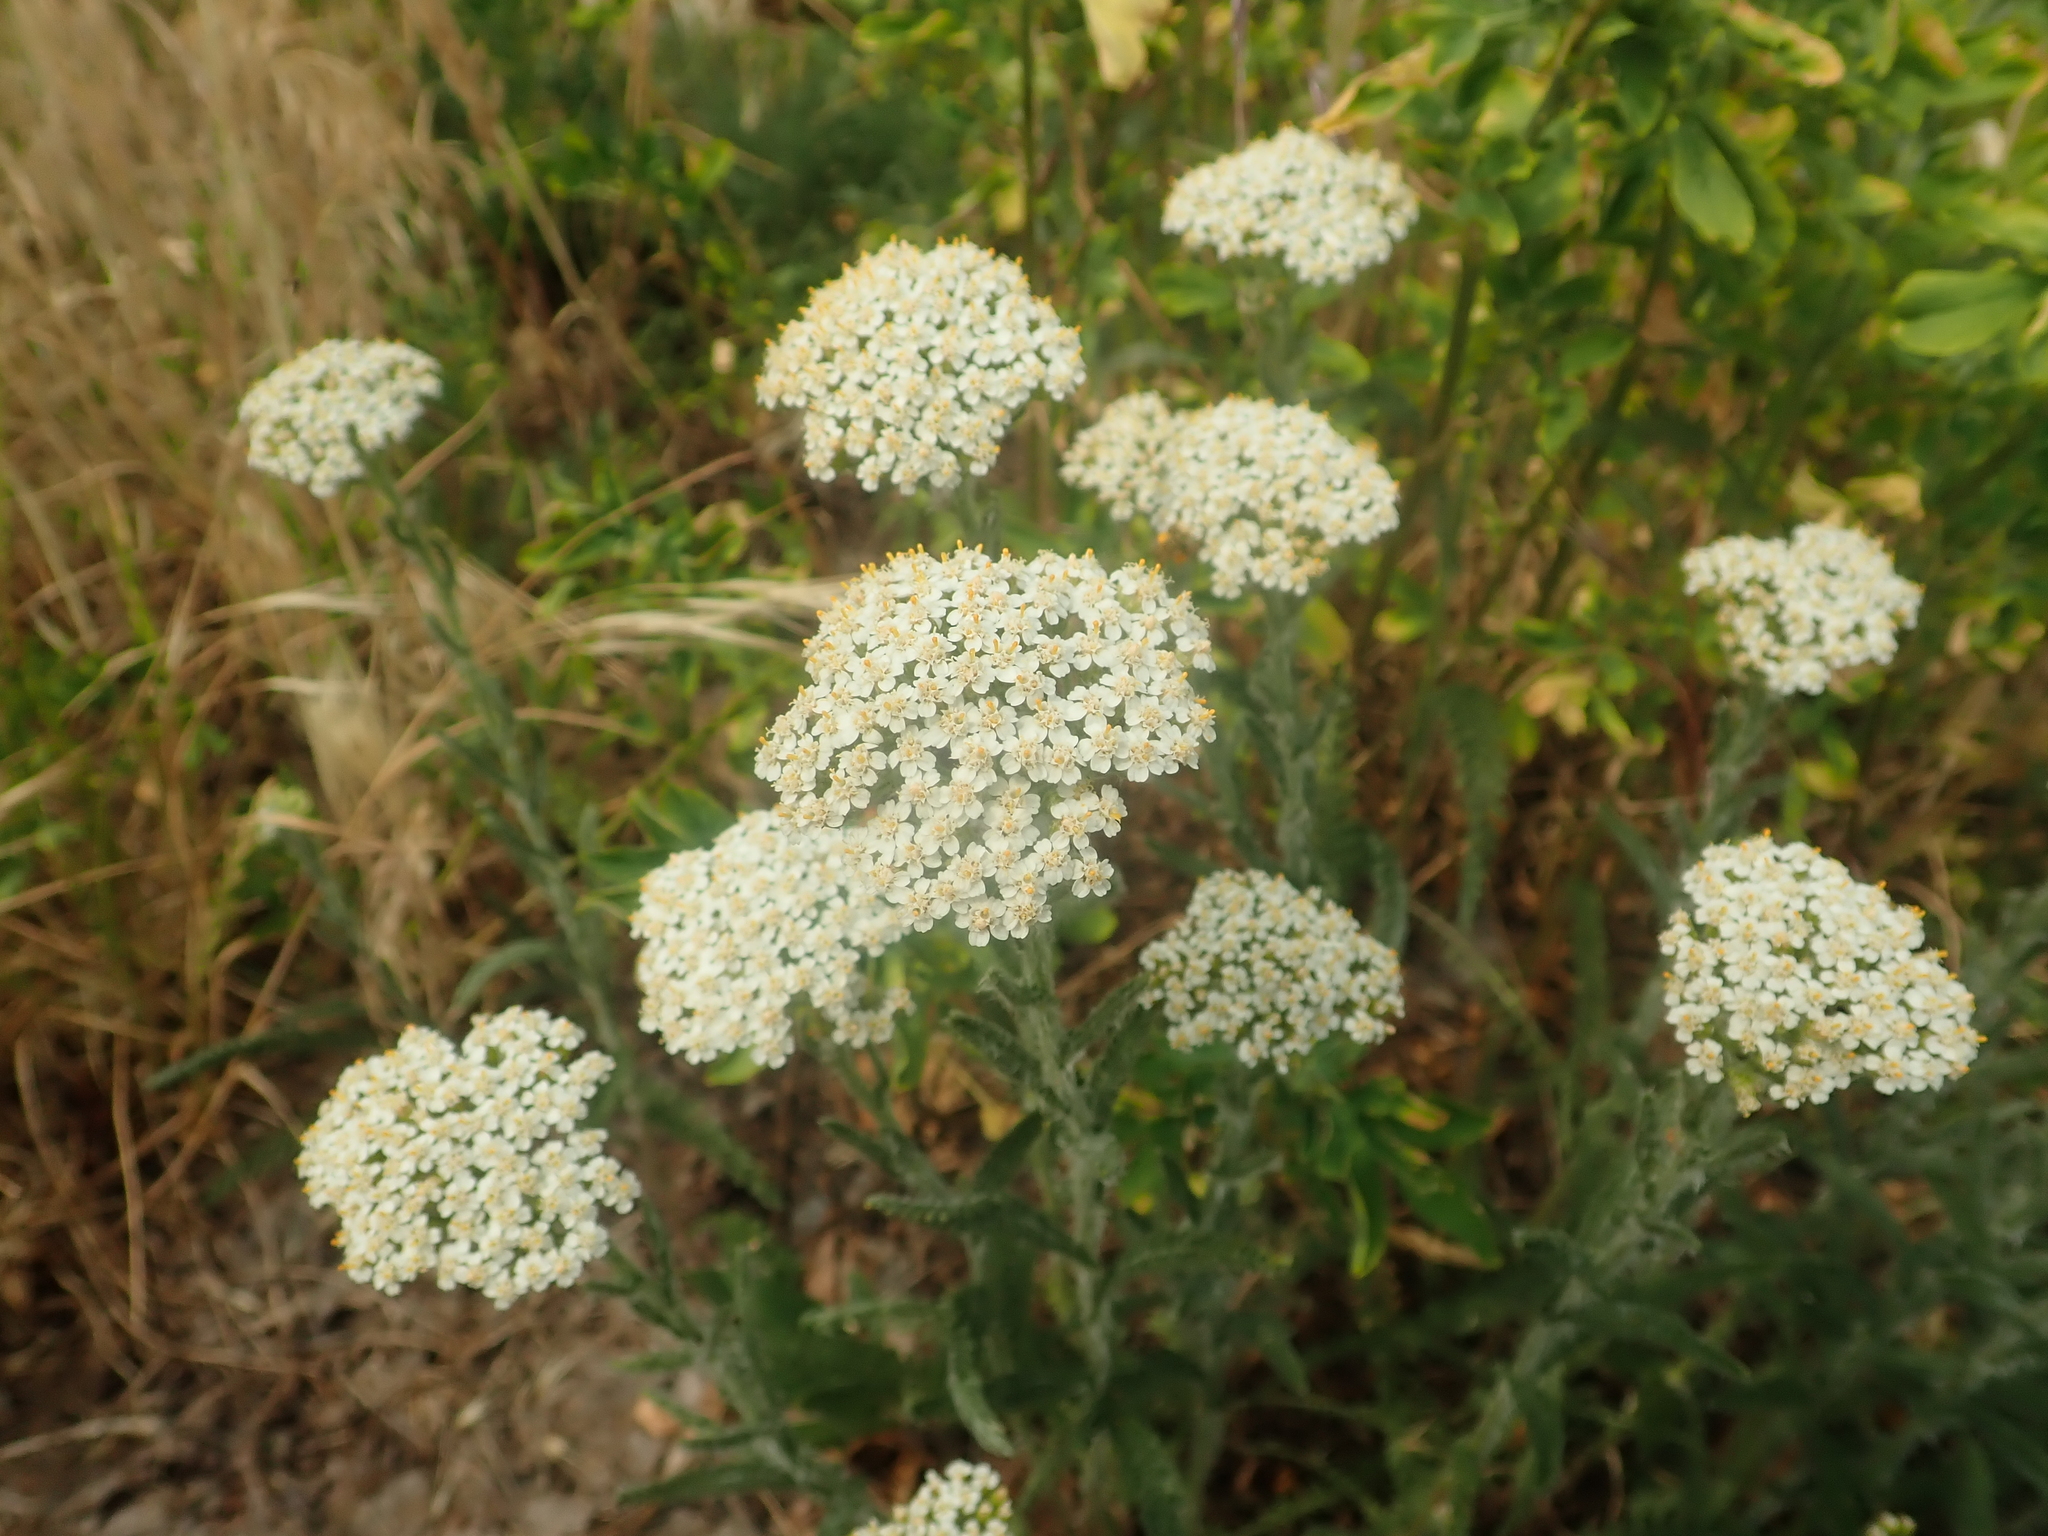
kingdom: Plantae
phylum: Tracheophyta
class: Magnoliopsida
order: Asterales
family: Asteraceae
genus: Achillea
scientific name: Achillea millefolium
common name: Yarrow
